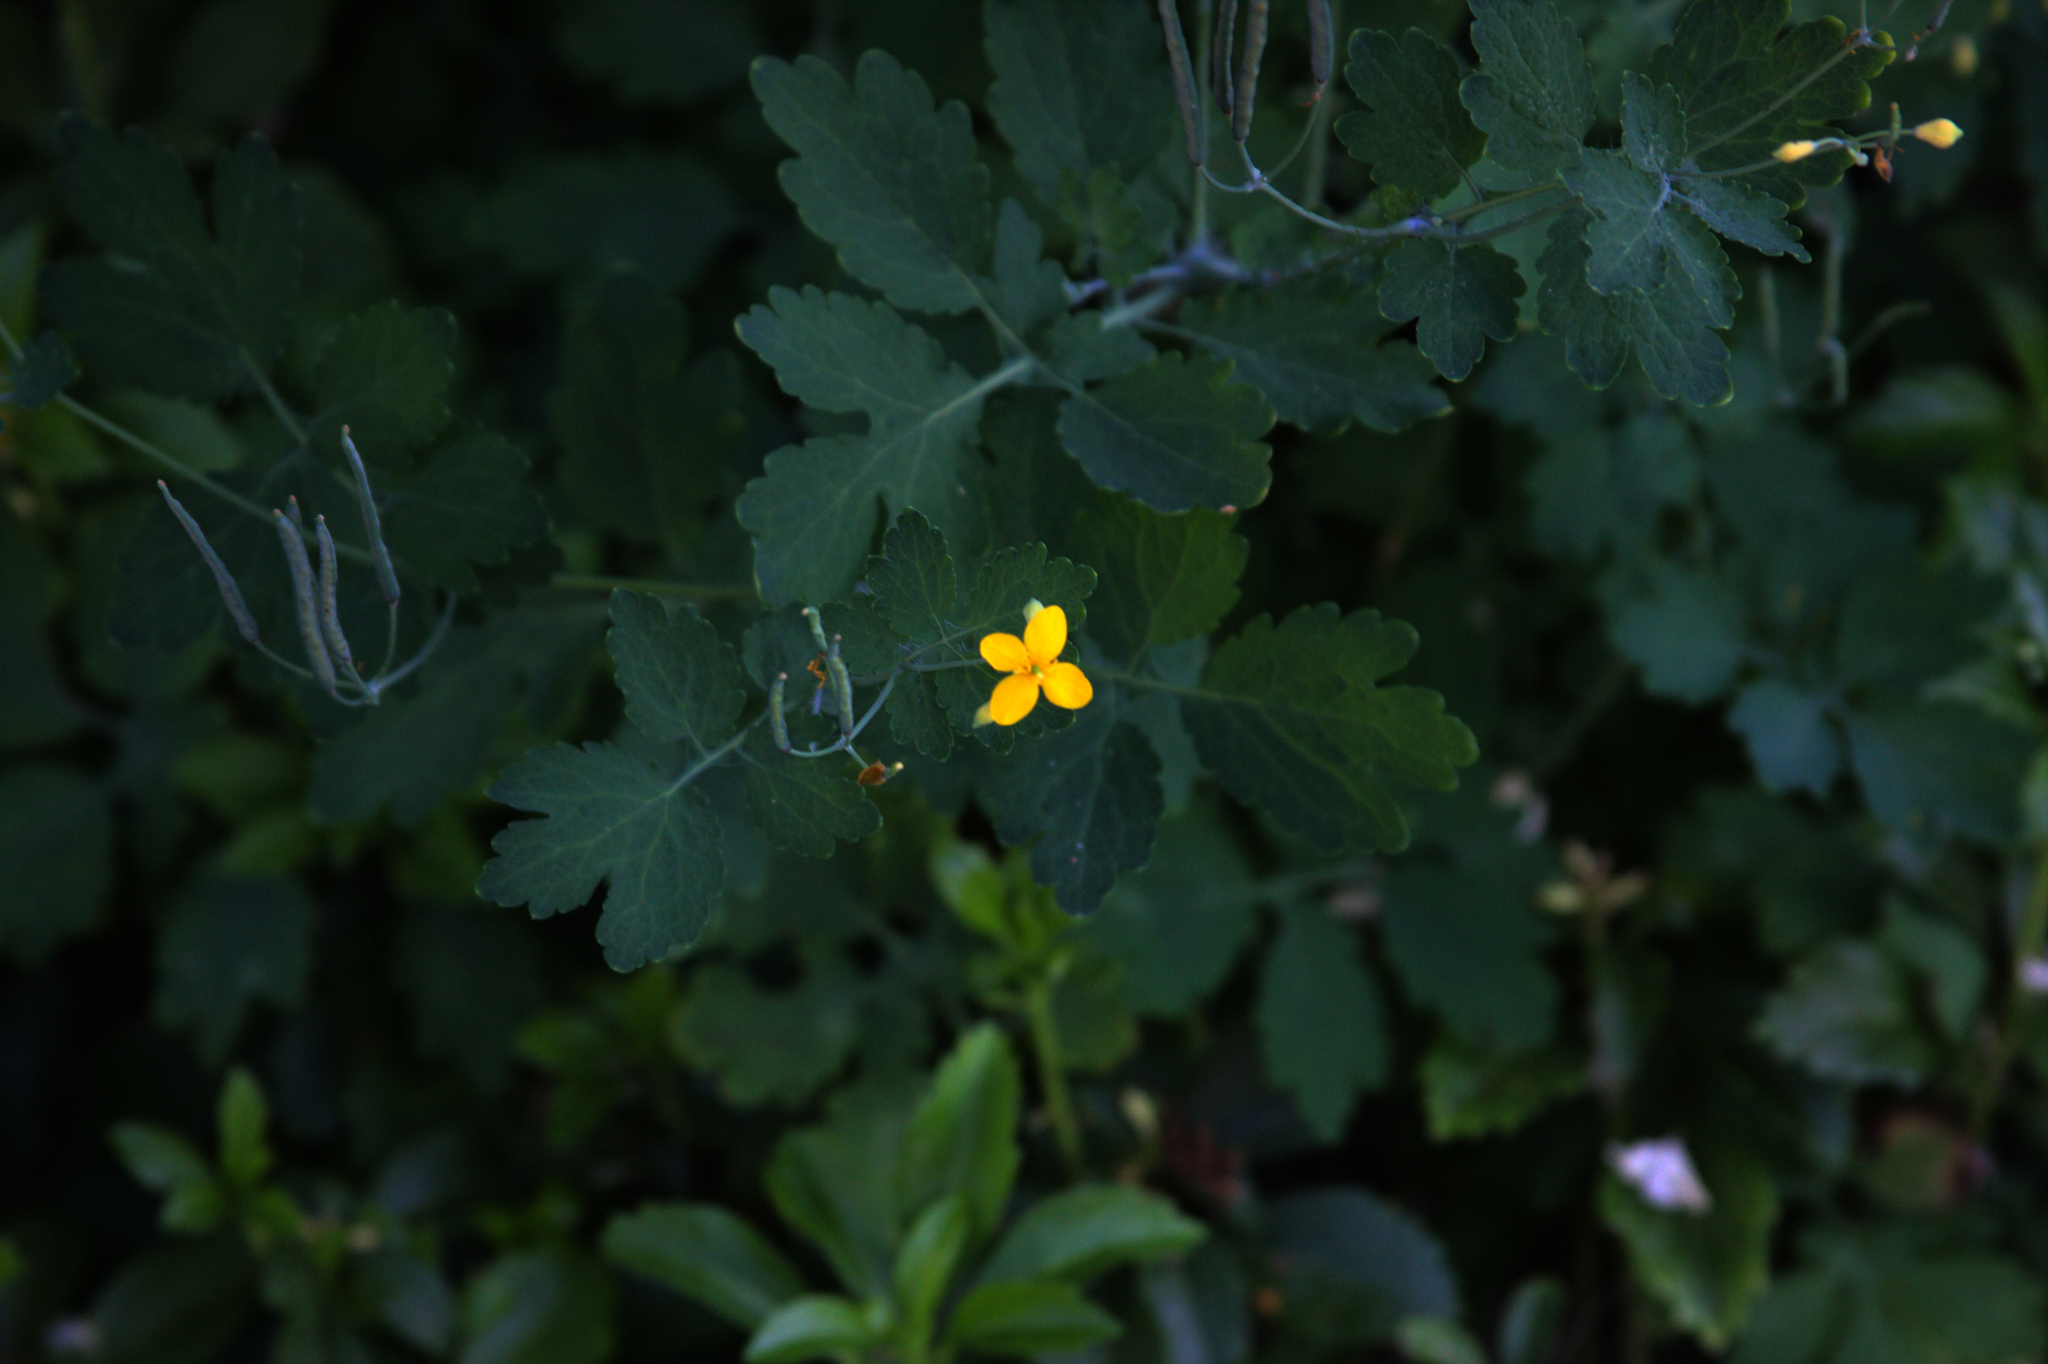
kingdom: Plantae
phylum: Tracheophyta
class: Magnoliopsida
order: Ranunculales
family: Papaveraceae
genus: Chelidonium
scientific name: Chelidonium majus
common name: Greater celandine
